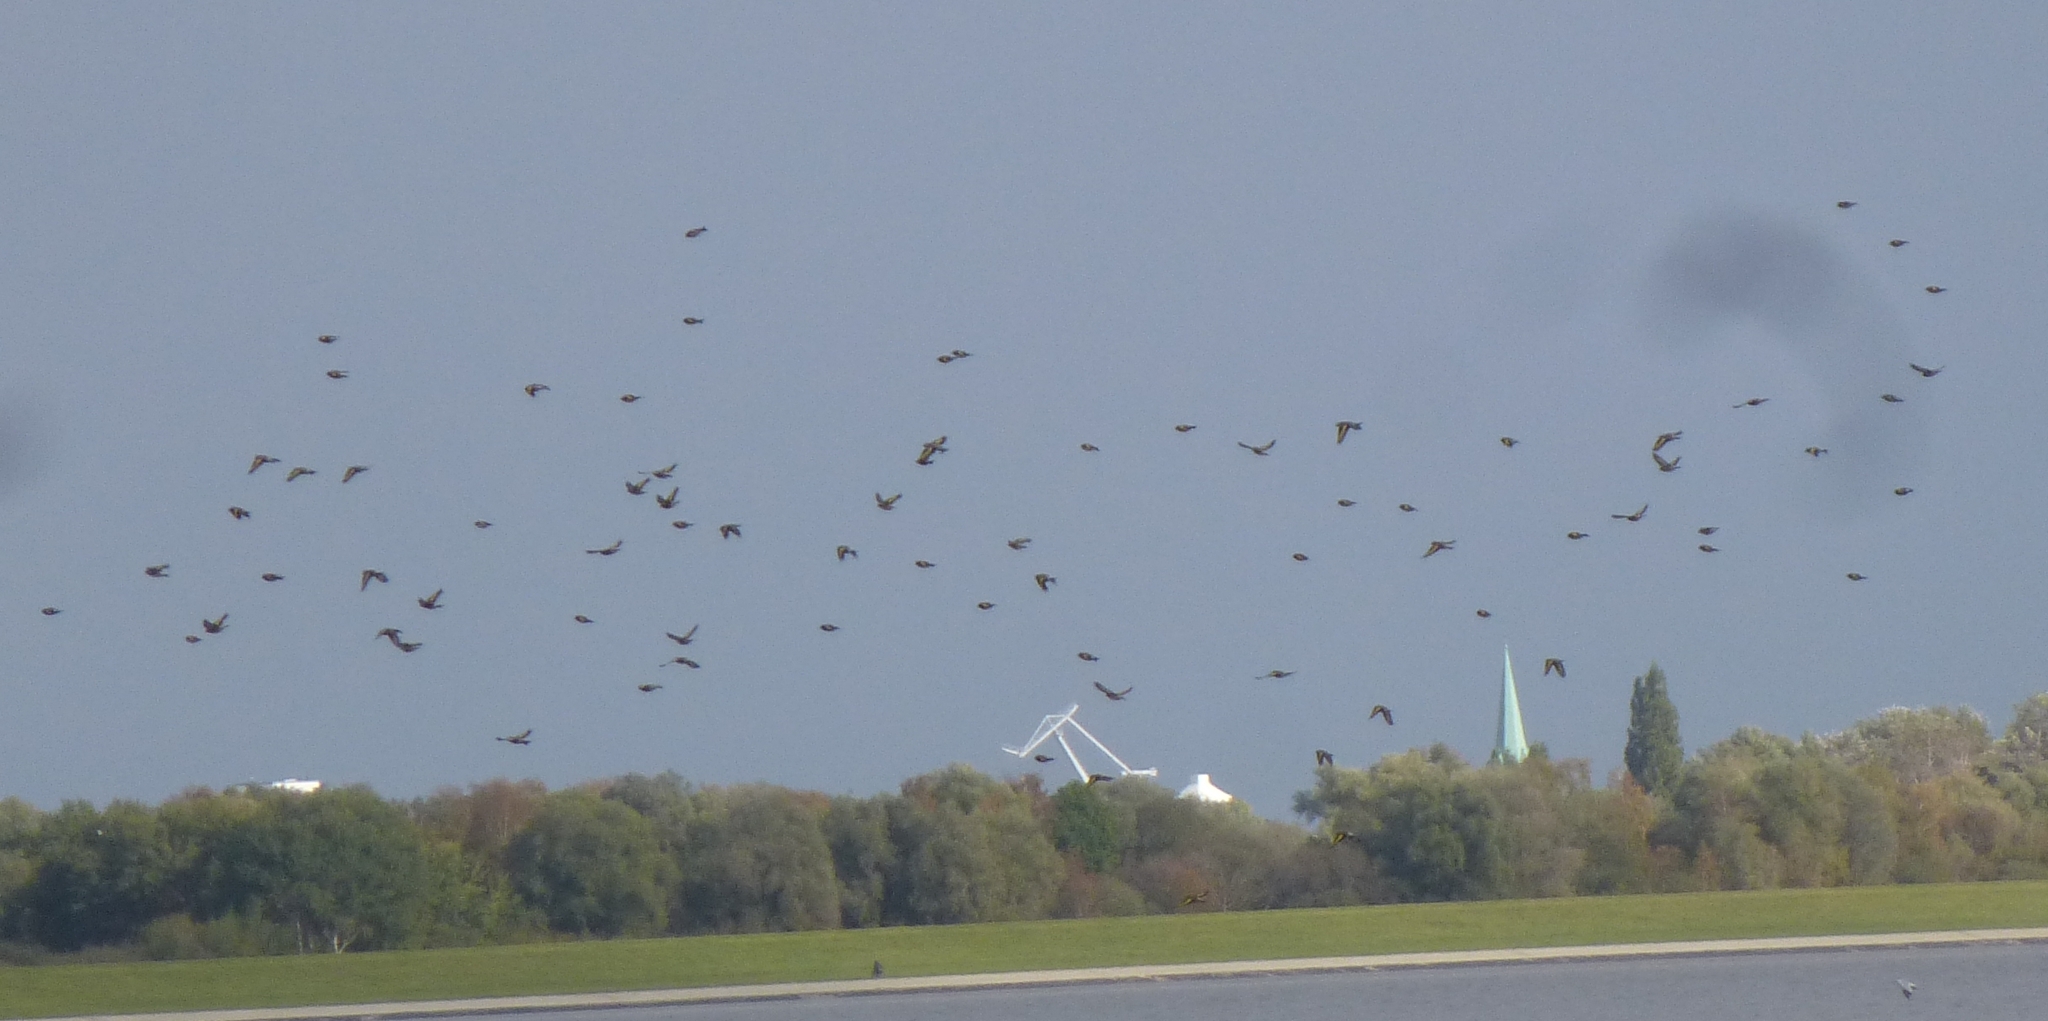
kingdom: Animalia
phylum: Chordata
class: Aves
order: Passeriformes
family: Fringillidae
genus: Carduelis
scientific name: Carduelis carduelis
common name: European goldfinch
